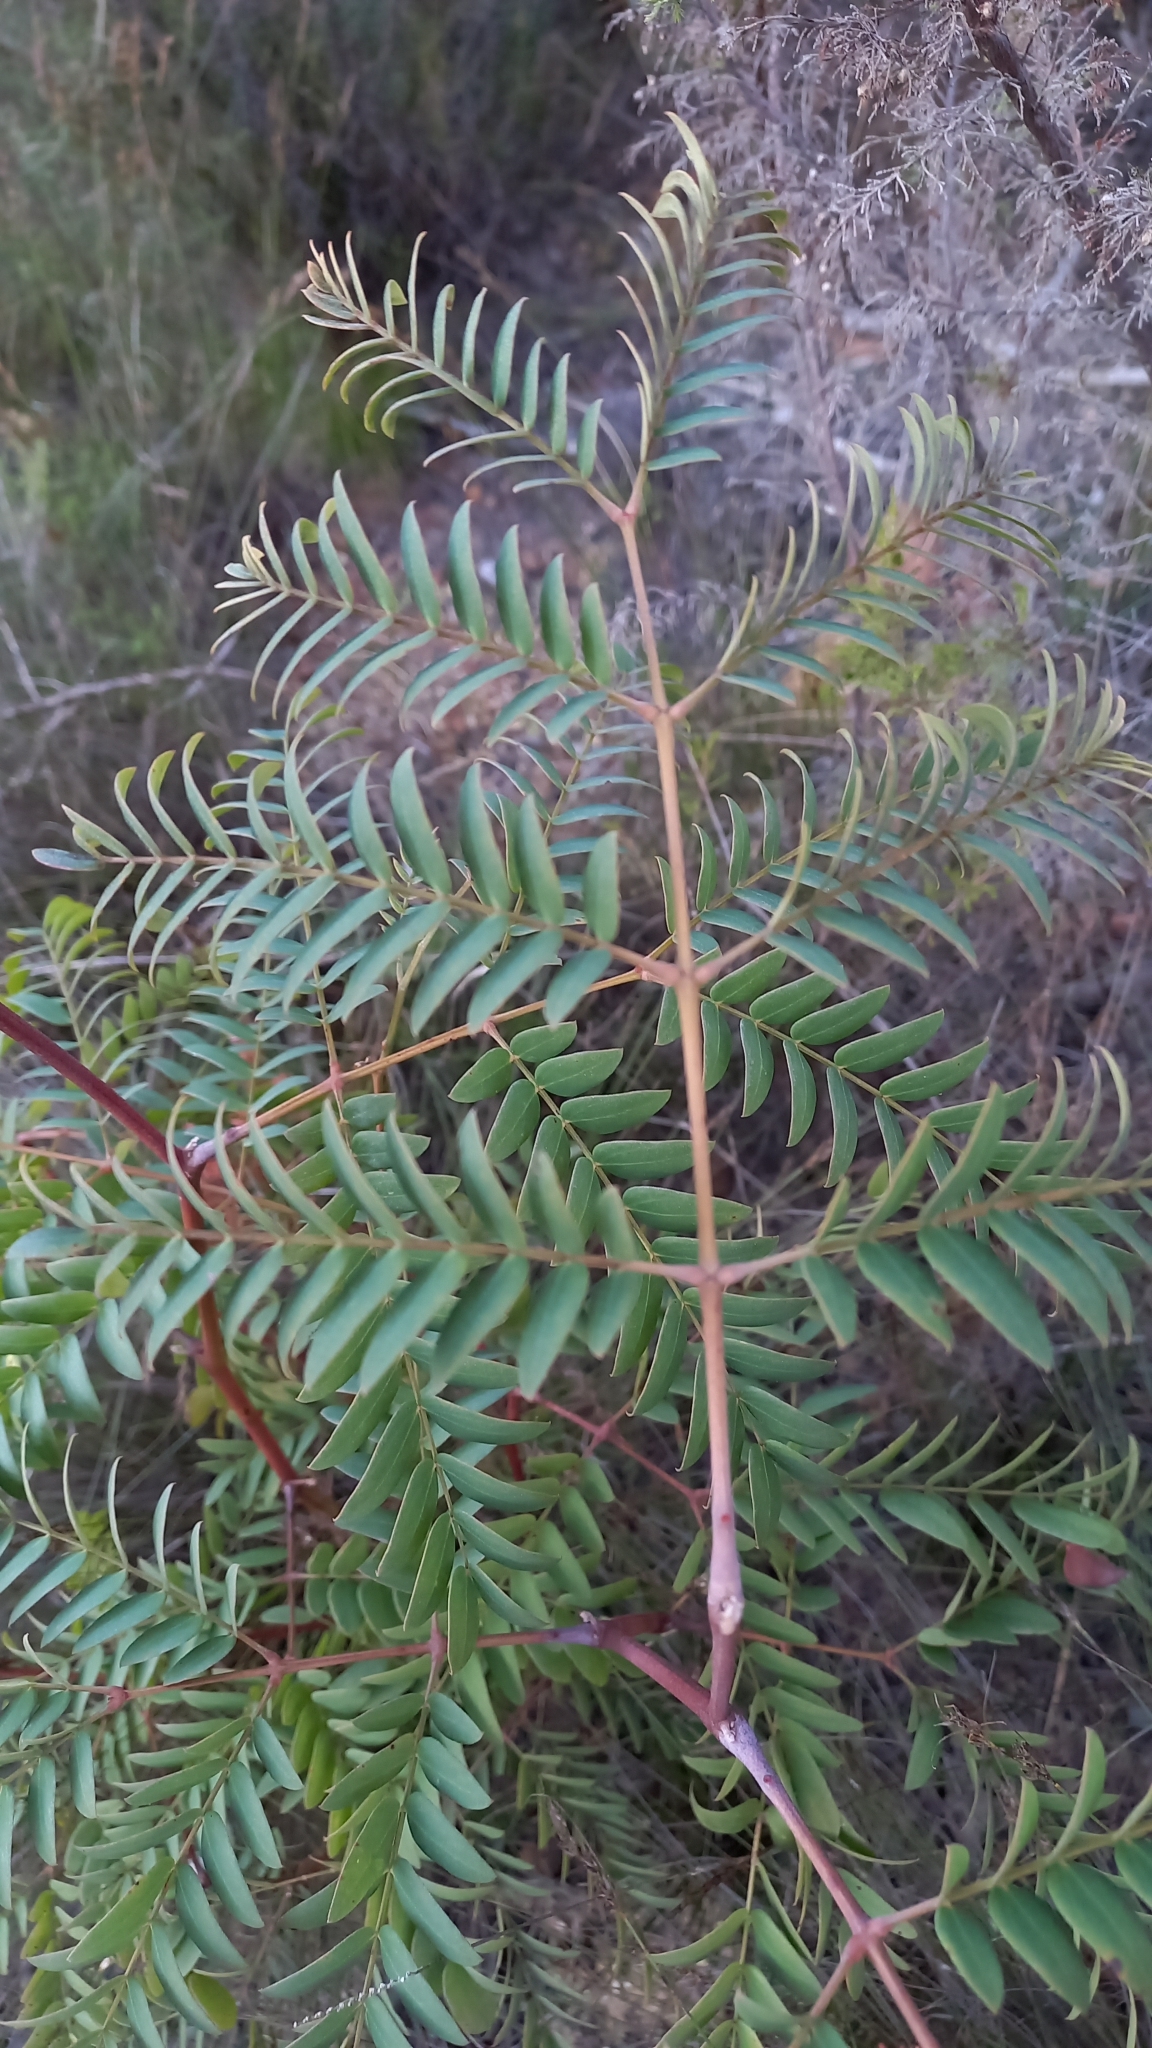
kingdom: Plantae
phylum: Tracheophyta
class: Magnoliopsida
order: Fabales
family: Fabaceae
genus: Acacia
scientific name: Acacia elata
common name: Cedar wattle
